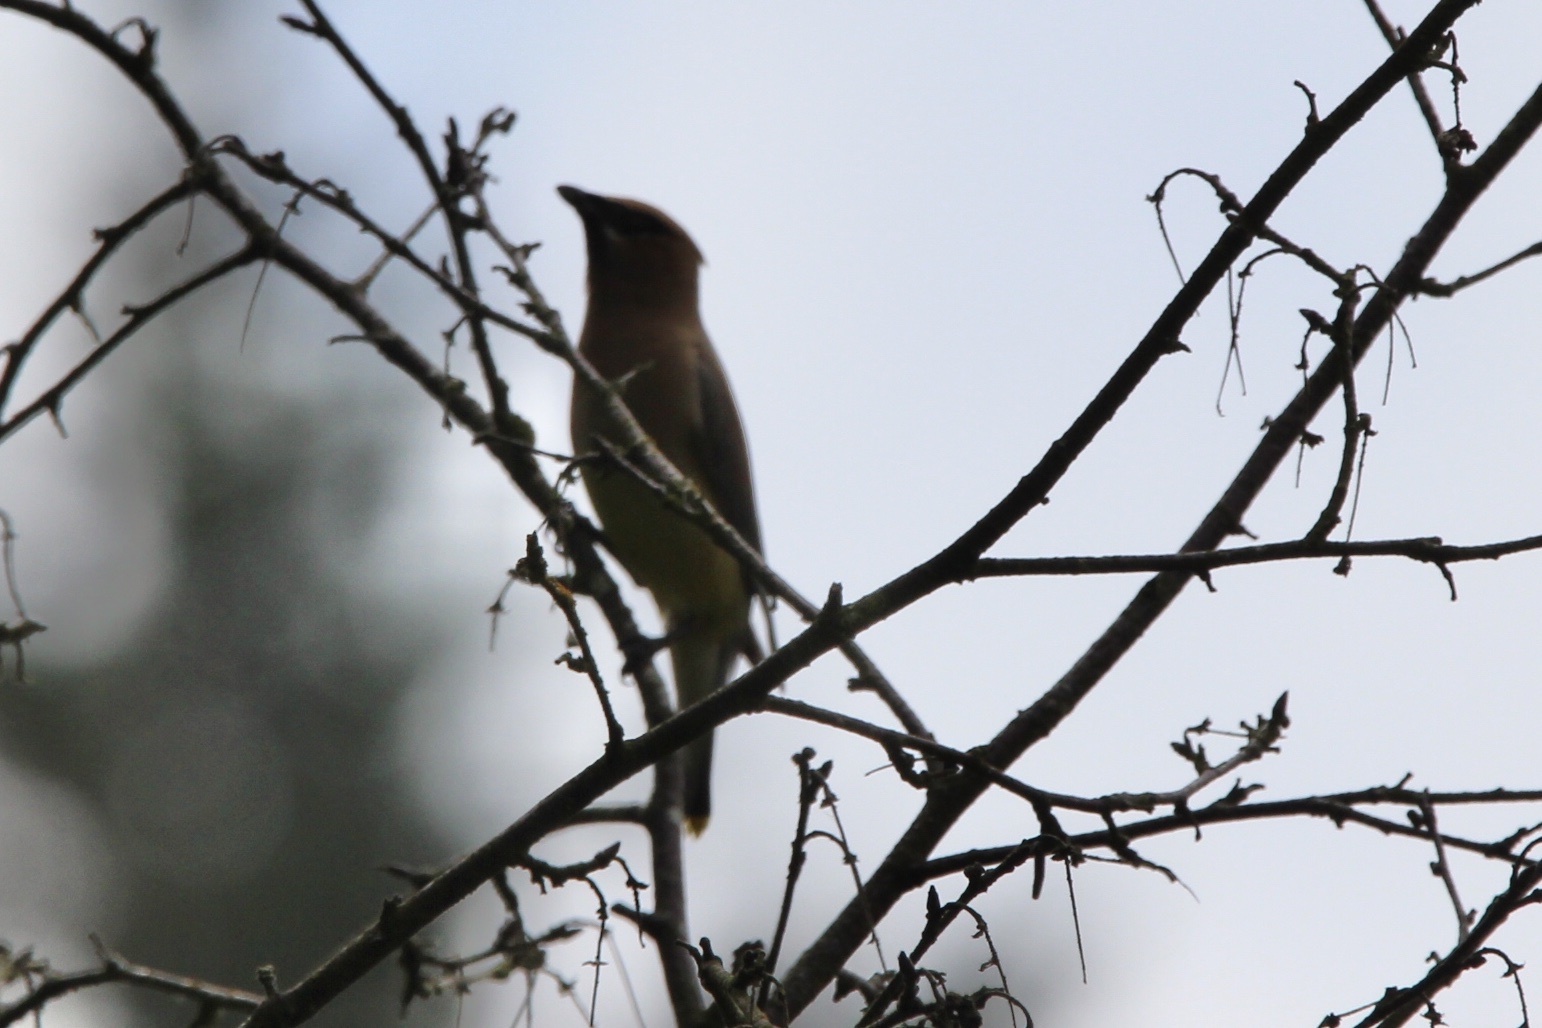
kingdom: Animalia
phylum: Chordata
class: Aves
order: Passeriformes
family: Bombycillidae
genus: Bombycilla
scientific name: Bombycilla cedrorum
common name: Cedar waxwing
